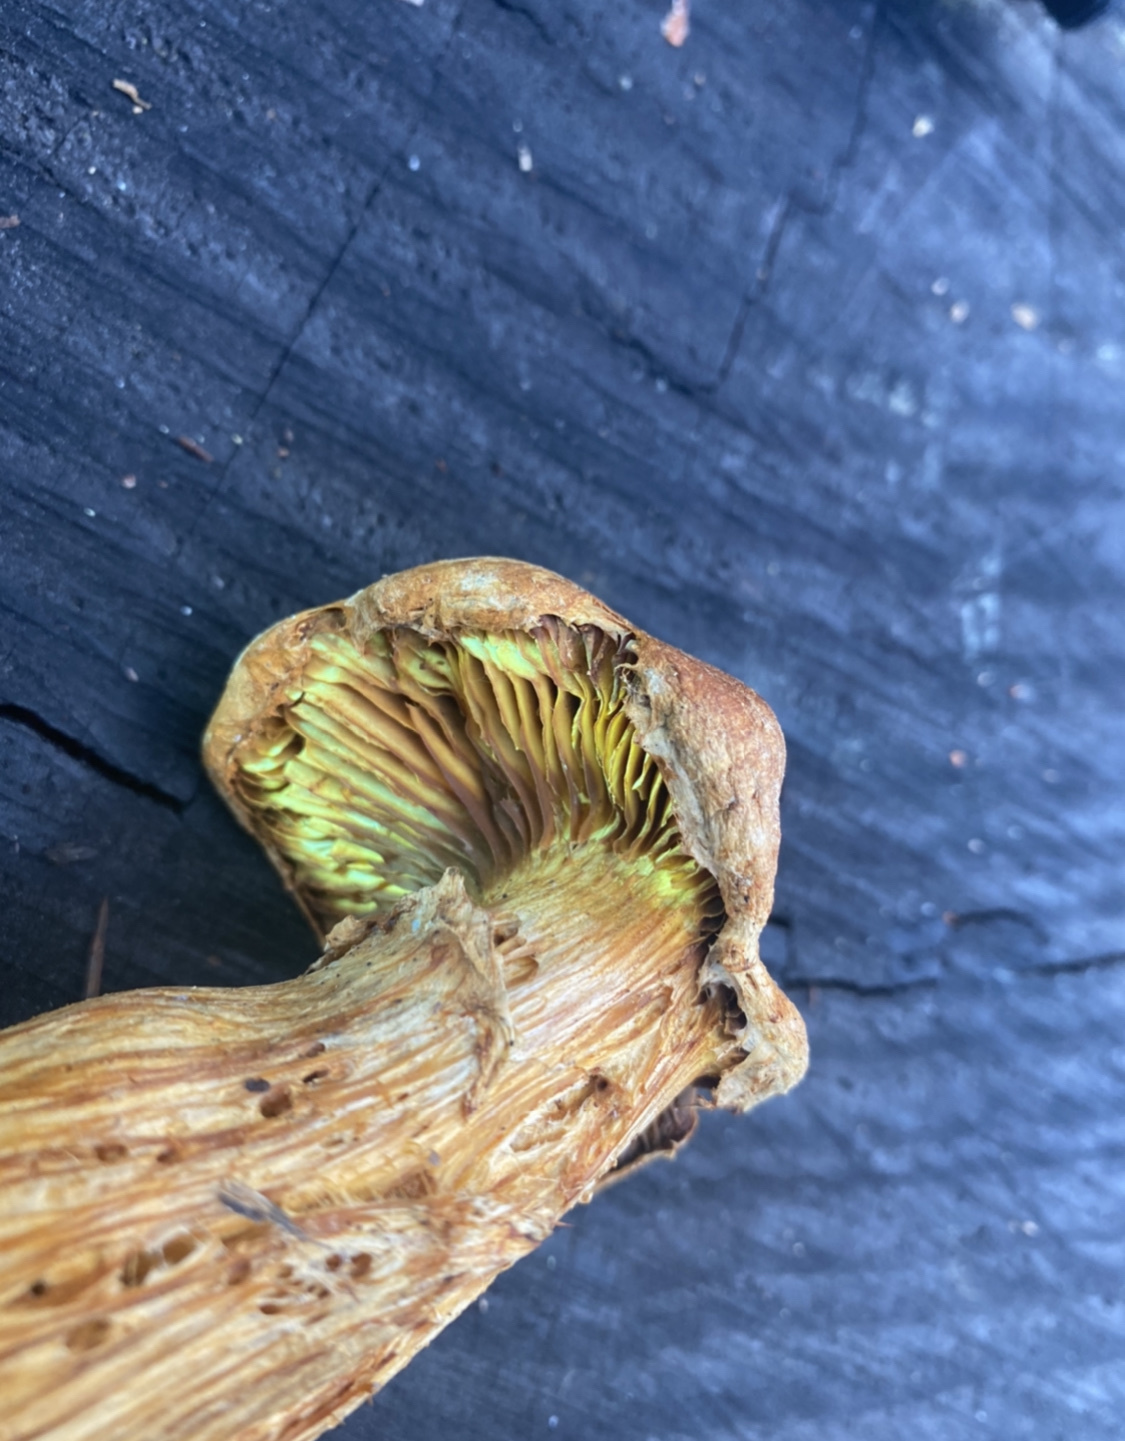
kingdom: Fungi
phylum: Basidiomycota
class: Agaricomycetes
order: Agaricales
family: Hymenogastraceae
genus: Gymnopilus
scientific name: Gymnopilus ventricosus
